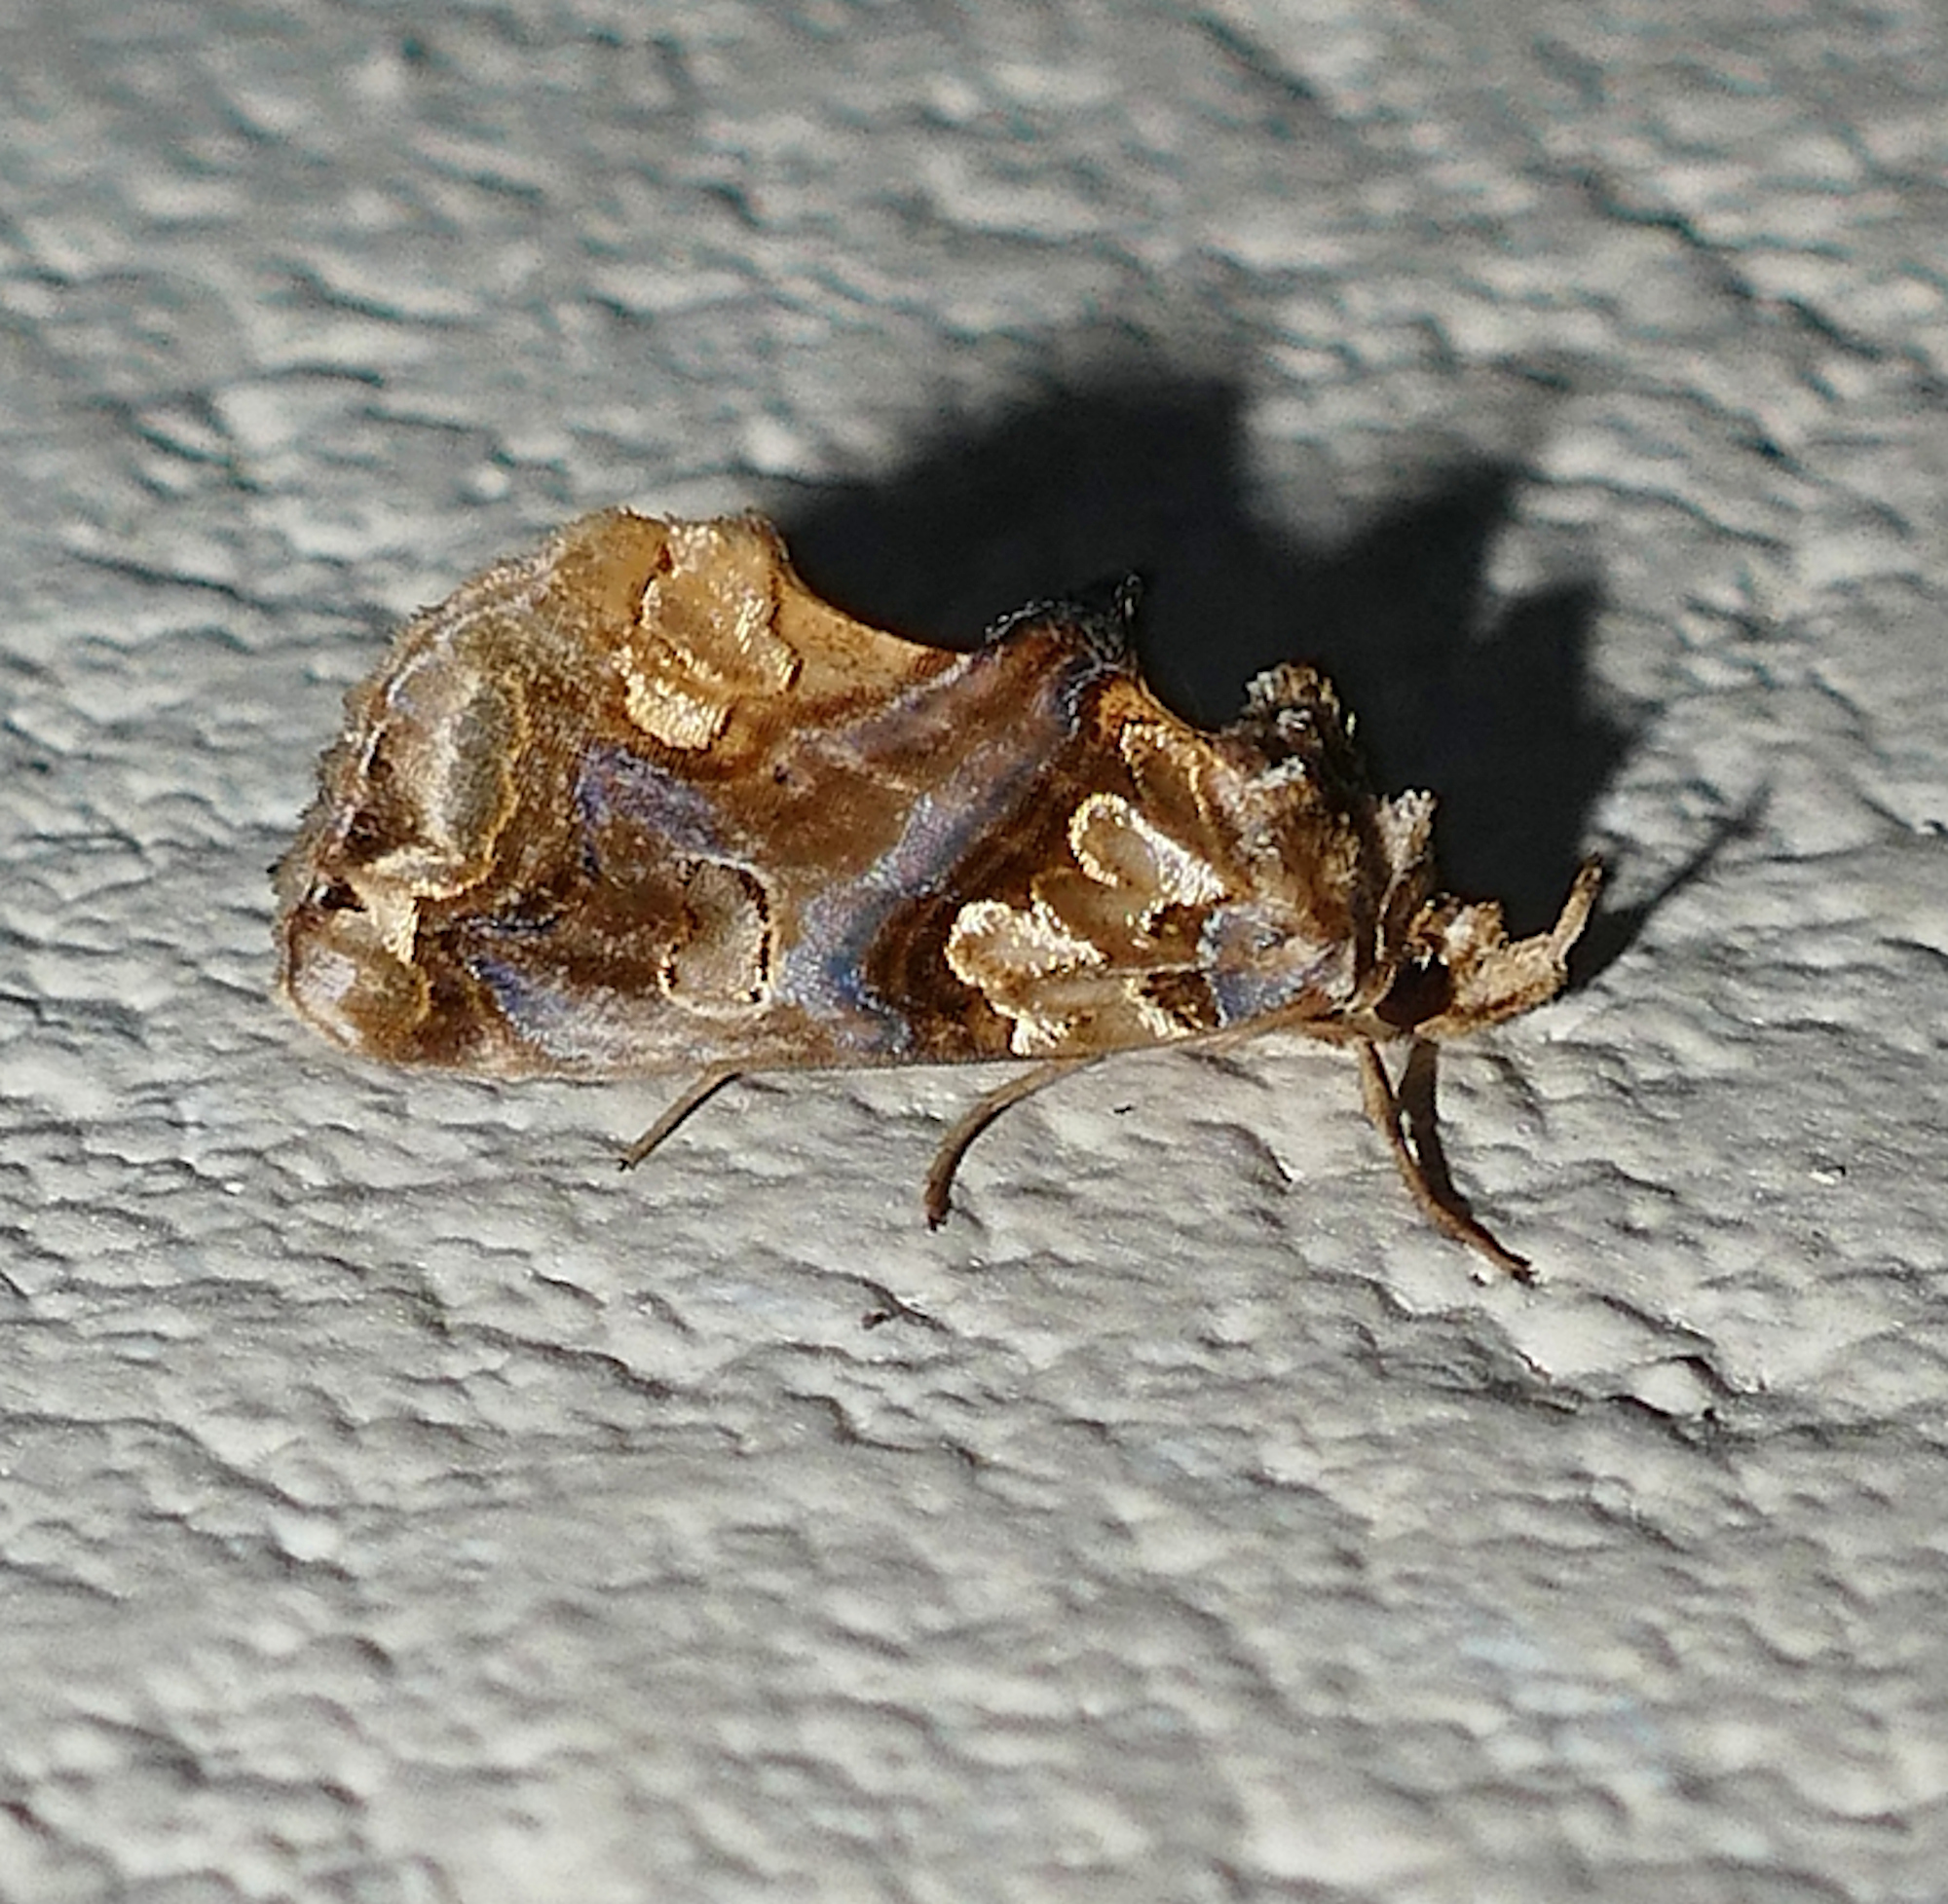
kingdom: Animalia
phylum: Arthropoda
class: Insecta
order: Lepidoptera
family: Erebidae
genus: Plusiodonta
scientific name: Plusiodonta compressipalpis
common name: Moonseed moth
